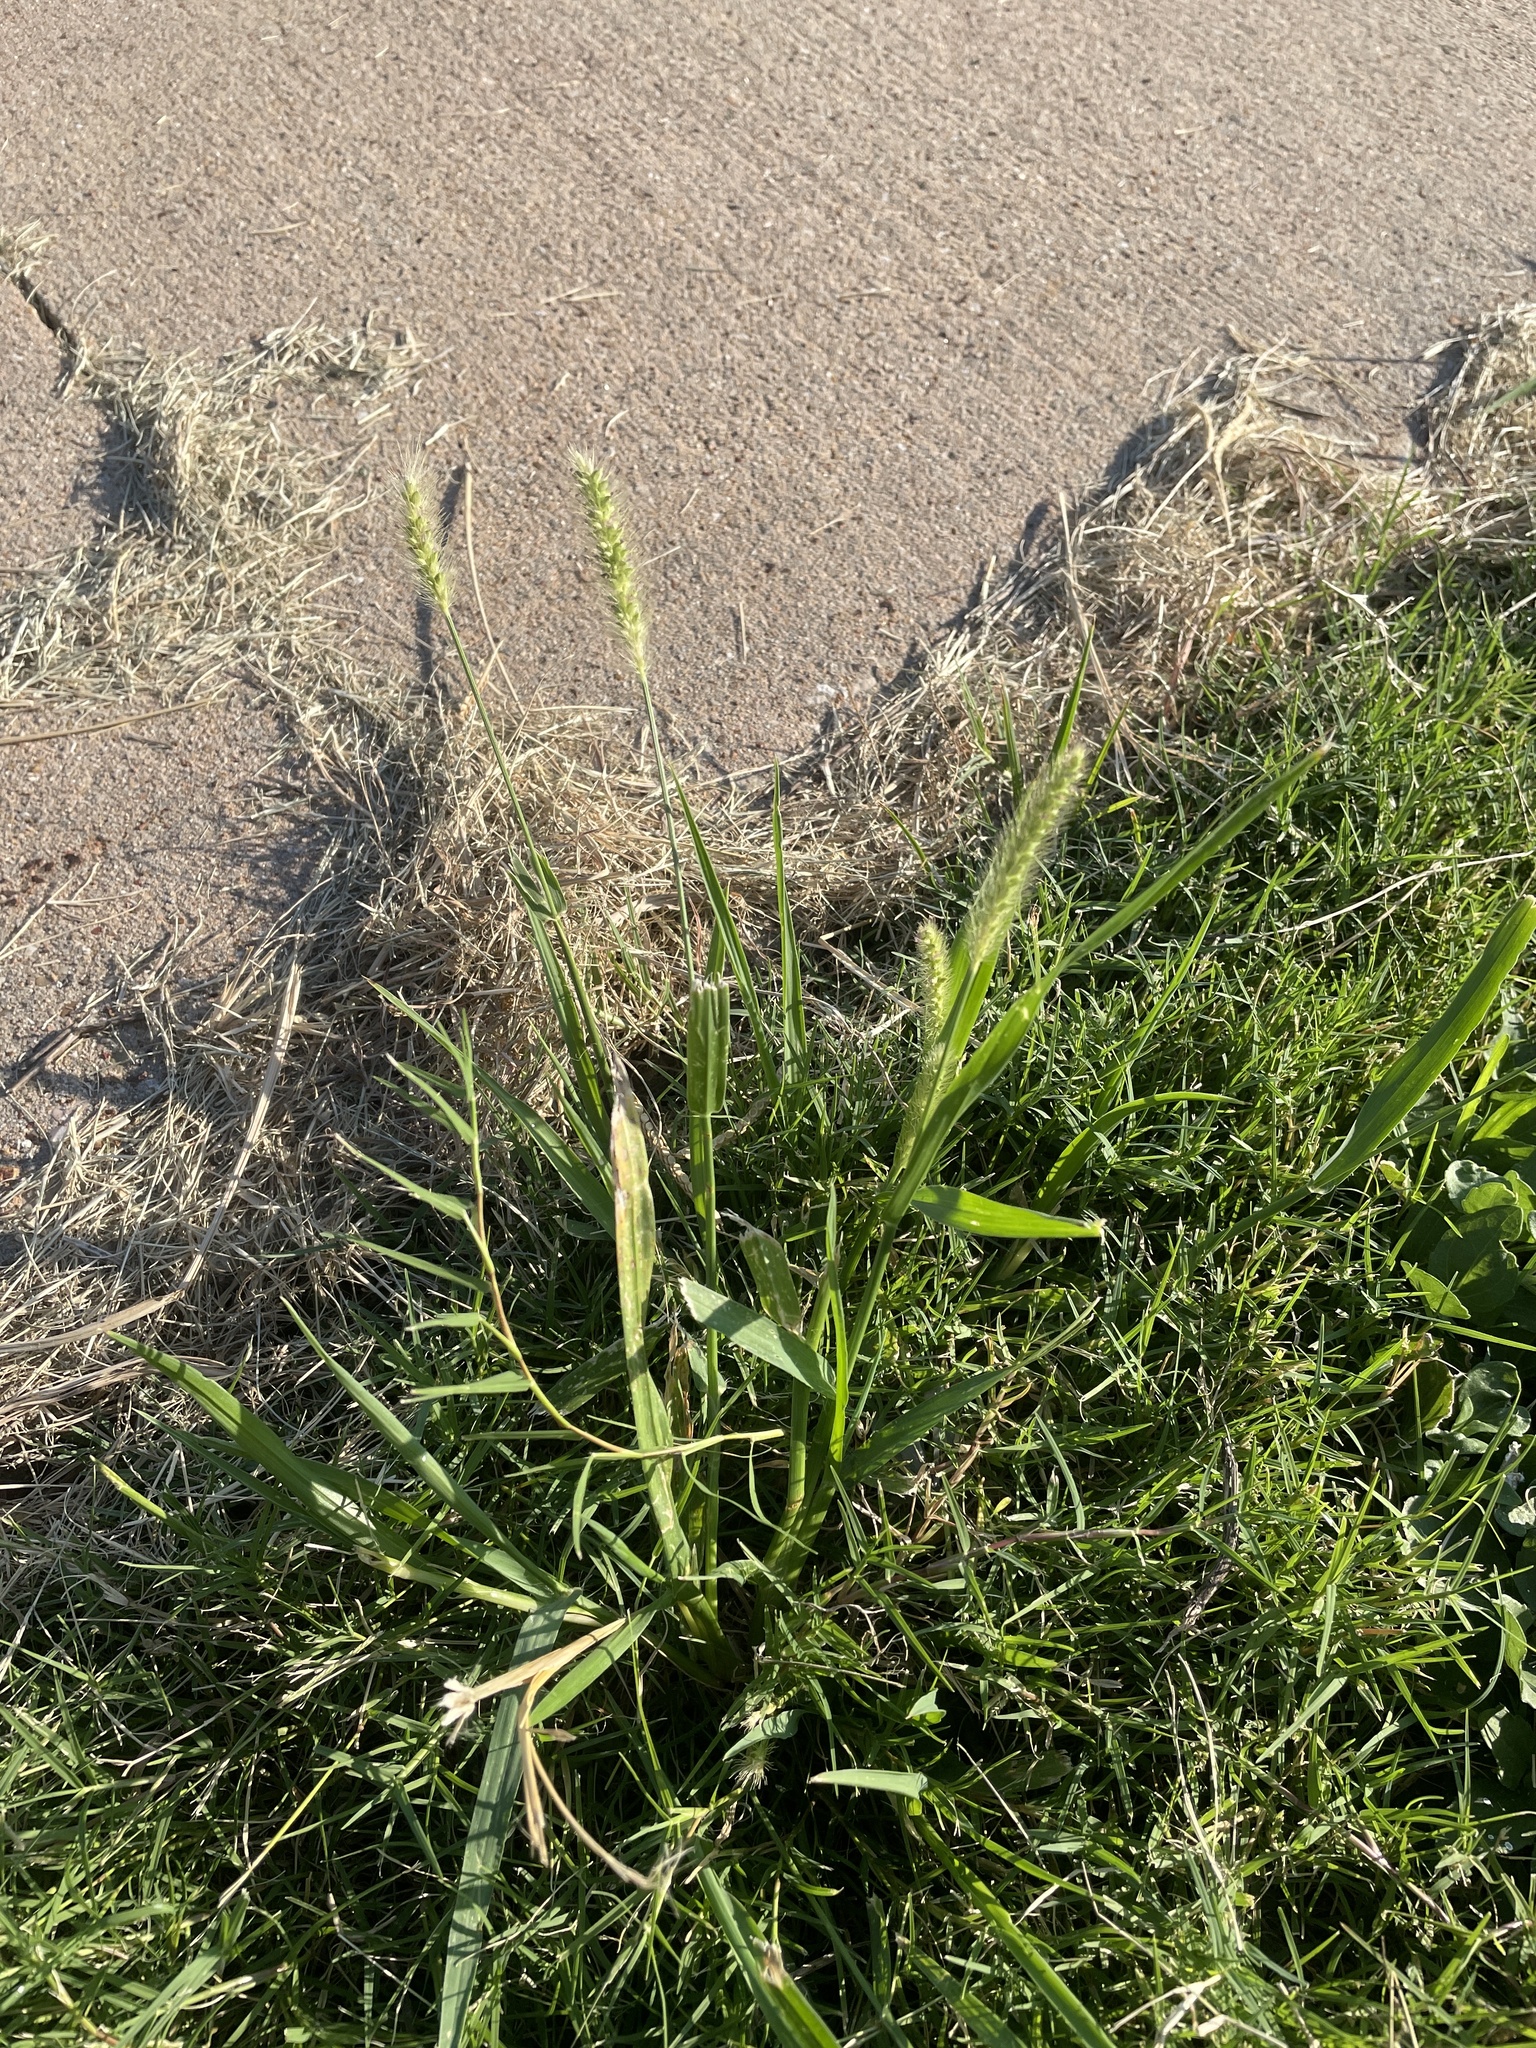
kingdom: Plantae
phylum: Tracheophyta
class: Liliopsida
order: Poales
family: Poaceae
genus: Setaria
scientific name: Setaria parviflora
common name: Knotroot bristle-grass
